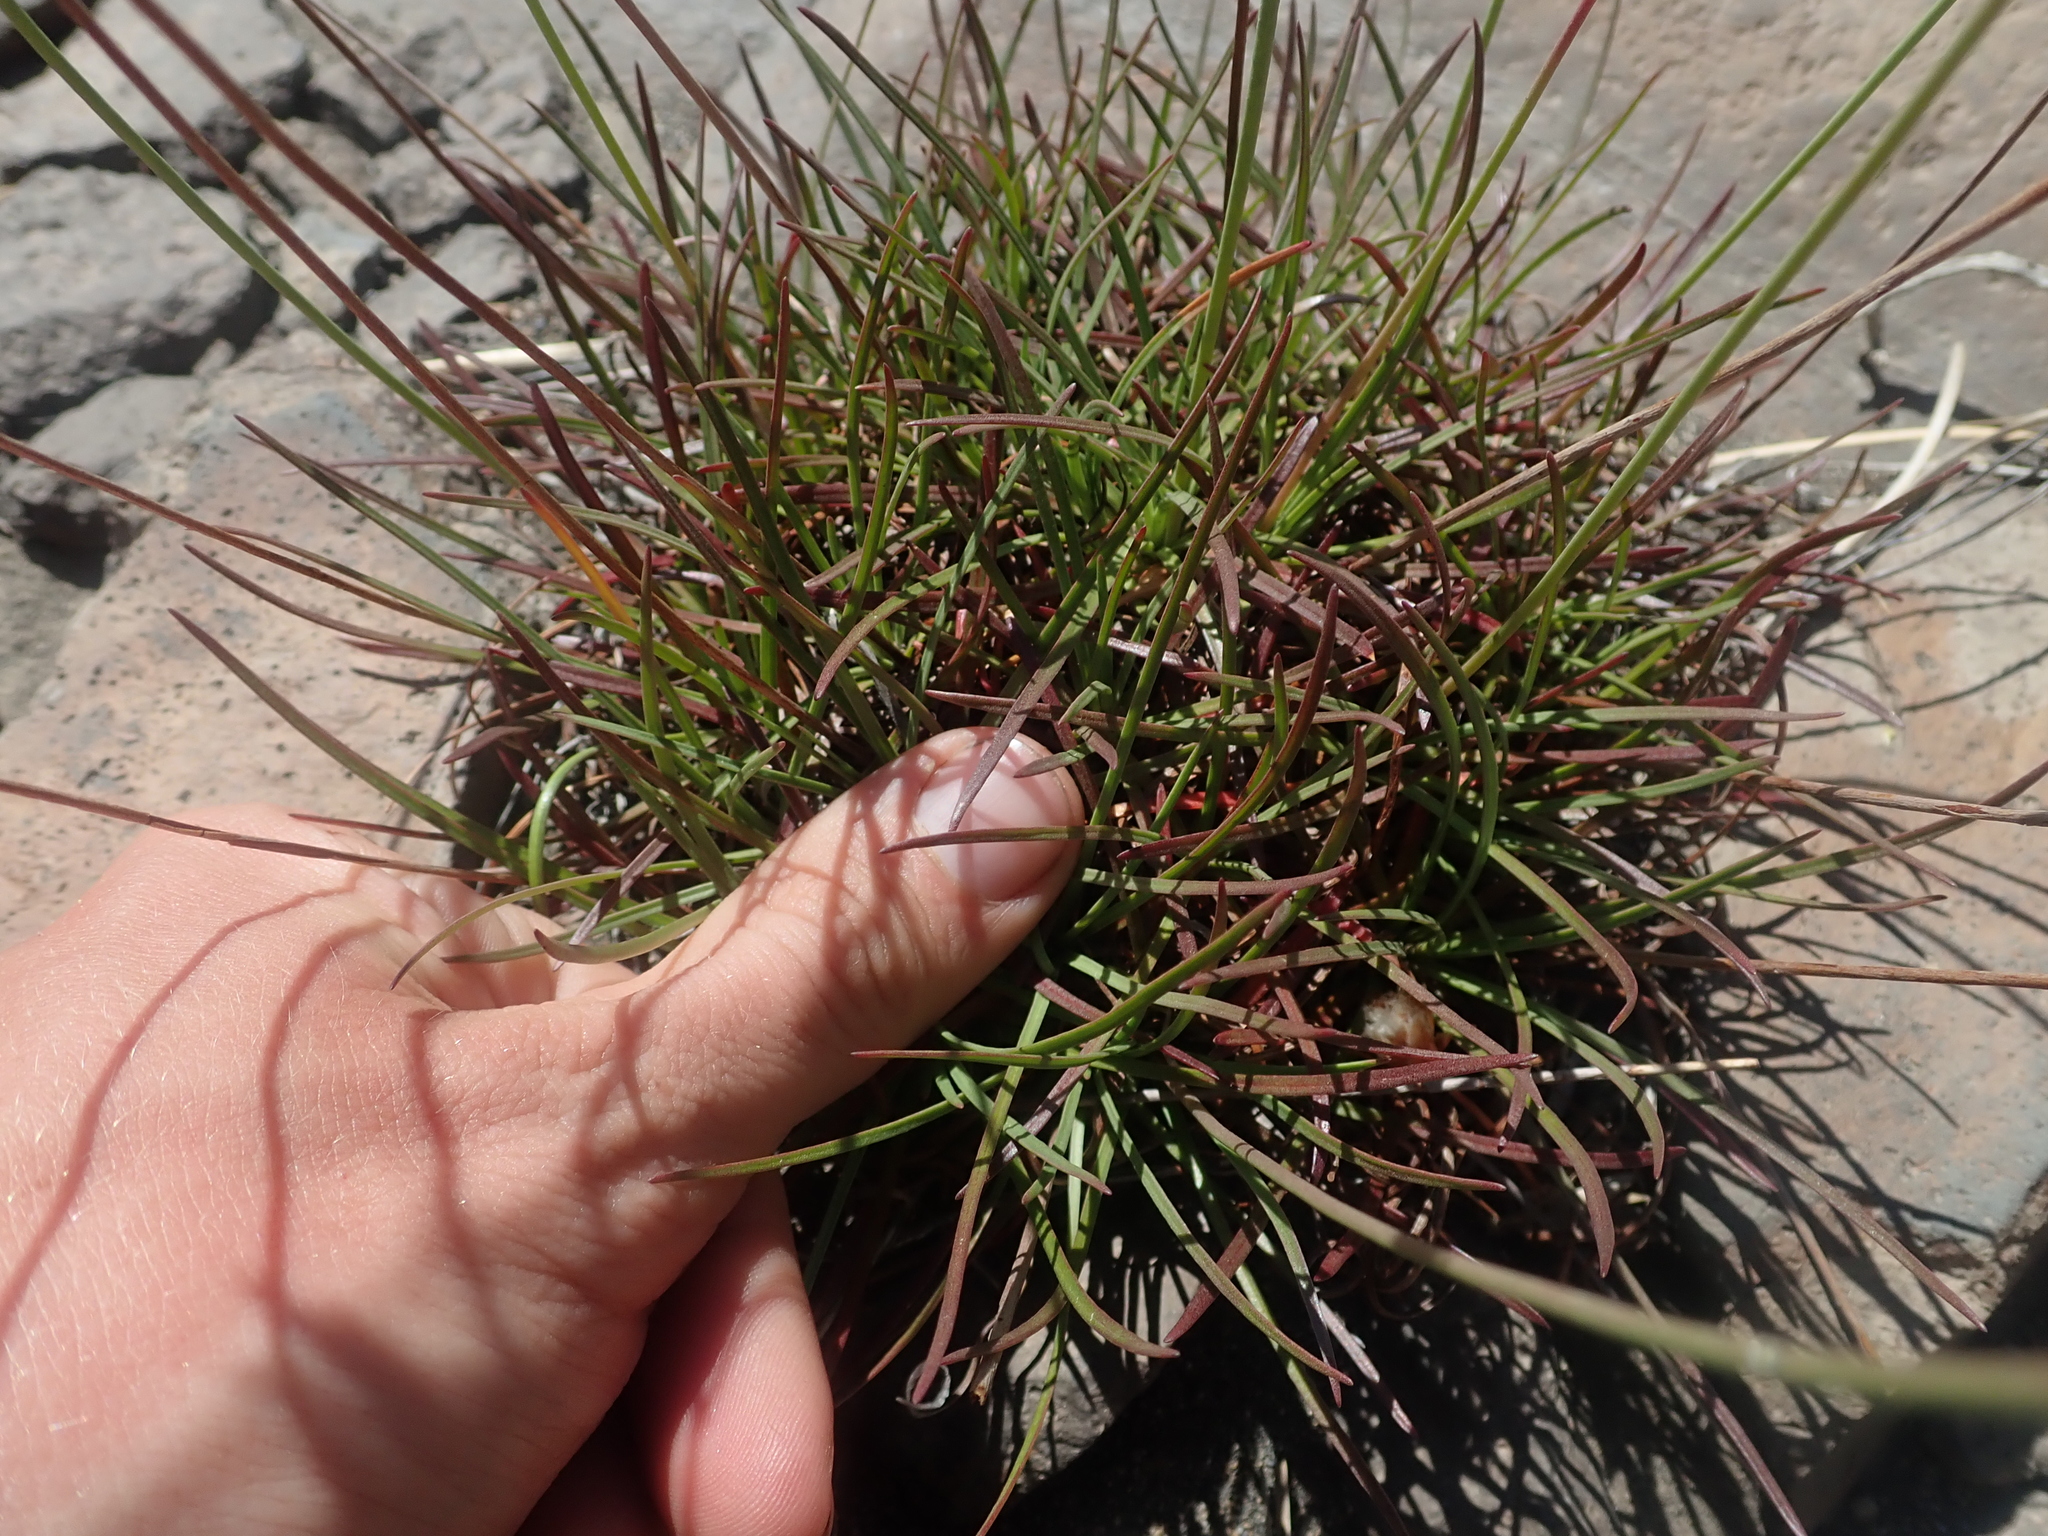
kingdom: Plantae
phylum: Tracheophyta
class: Magnoliopsida
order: Caryophyllales
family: Plumbaginaceae
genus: Armeria
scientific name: Armeria curvifolia
